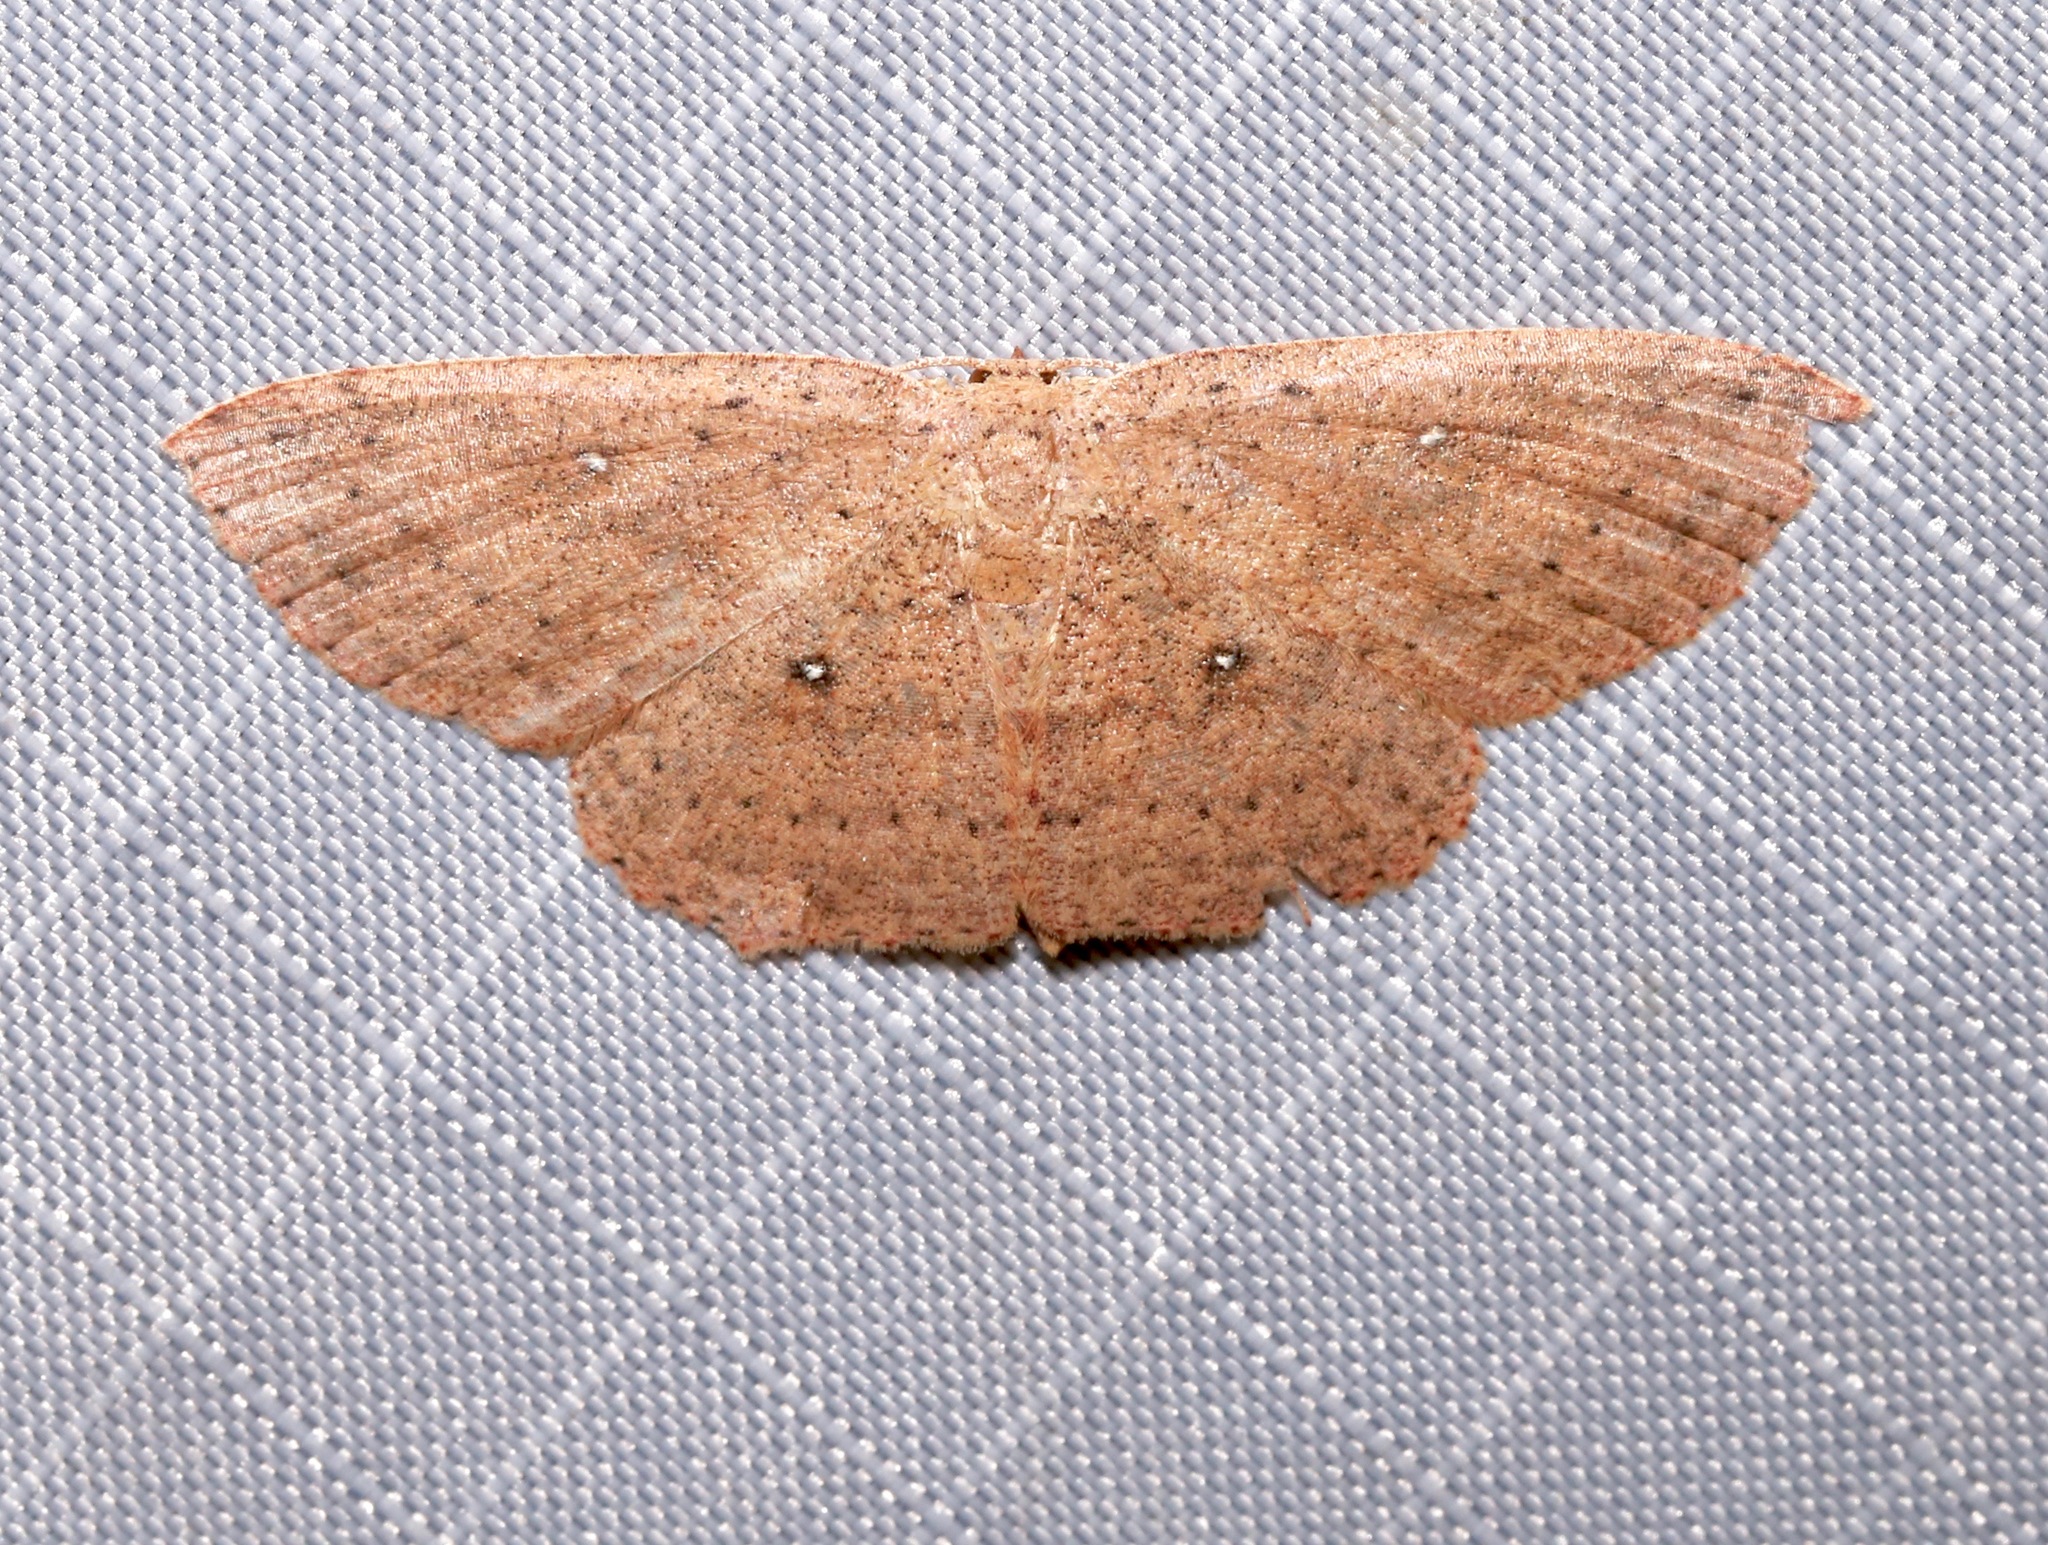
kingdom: Animalia
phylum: Arthropoda
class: Insecta
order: Lepidoptera
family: Geometridae
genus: Cyclophora
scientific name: Cyclophora myrtaria
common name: Waxmyrtle wave moth
